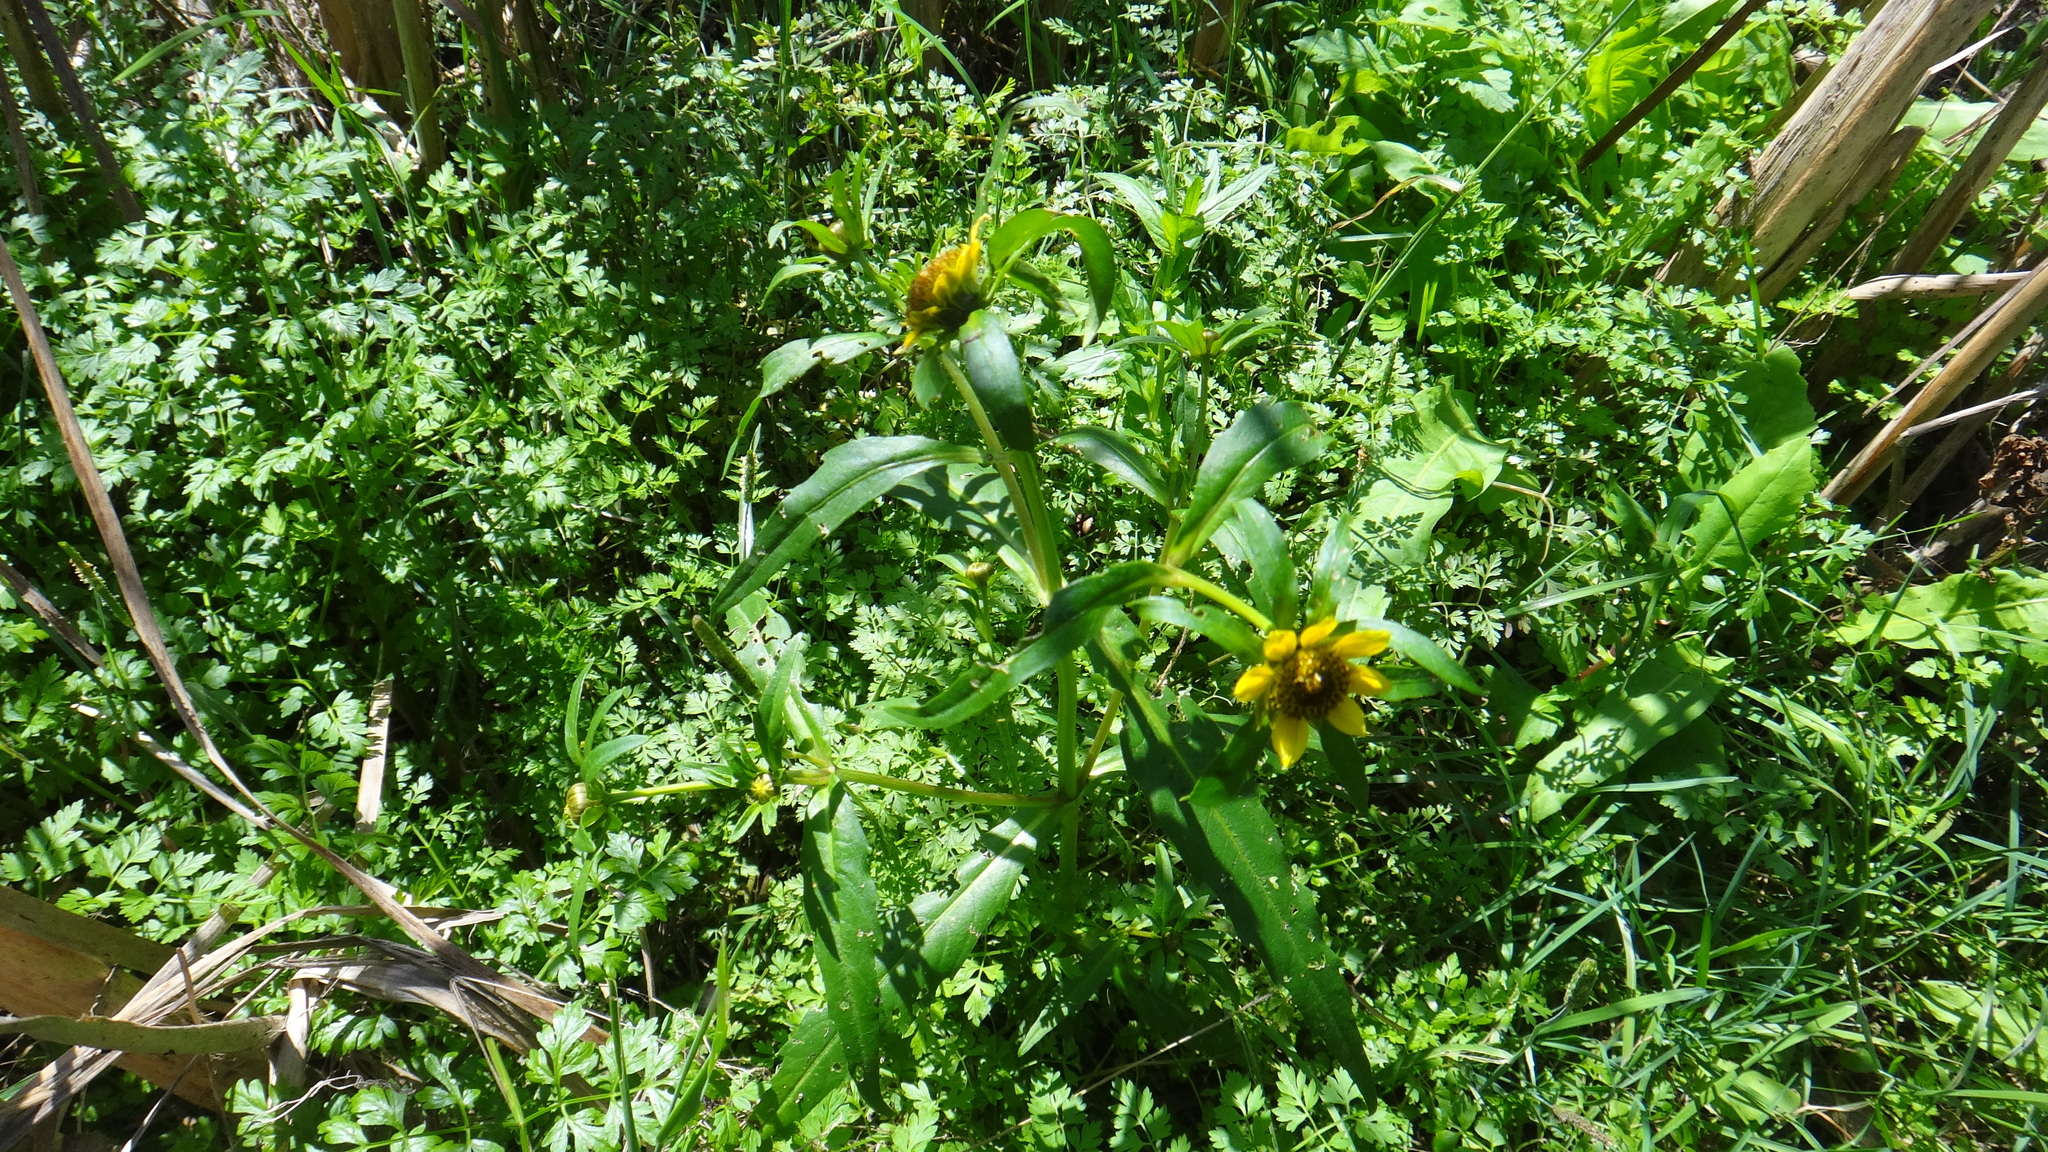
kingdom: Plantae
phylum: Tracheophyta
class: Magnoliopsida
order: Asterales
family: Asteraceae
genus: Bidens
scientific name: Bidens cernua
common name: Nodding bur-marigold
